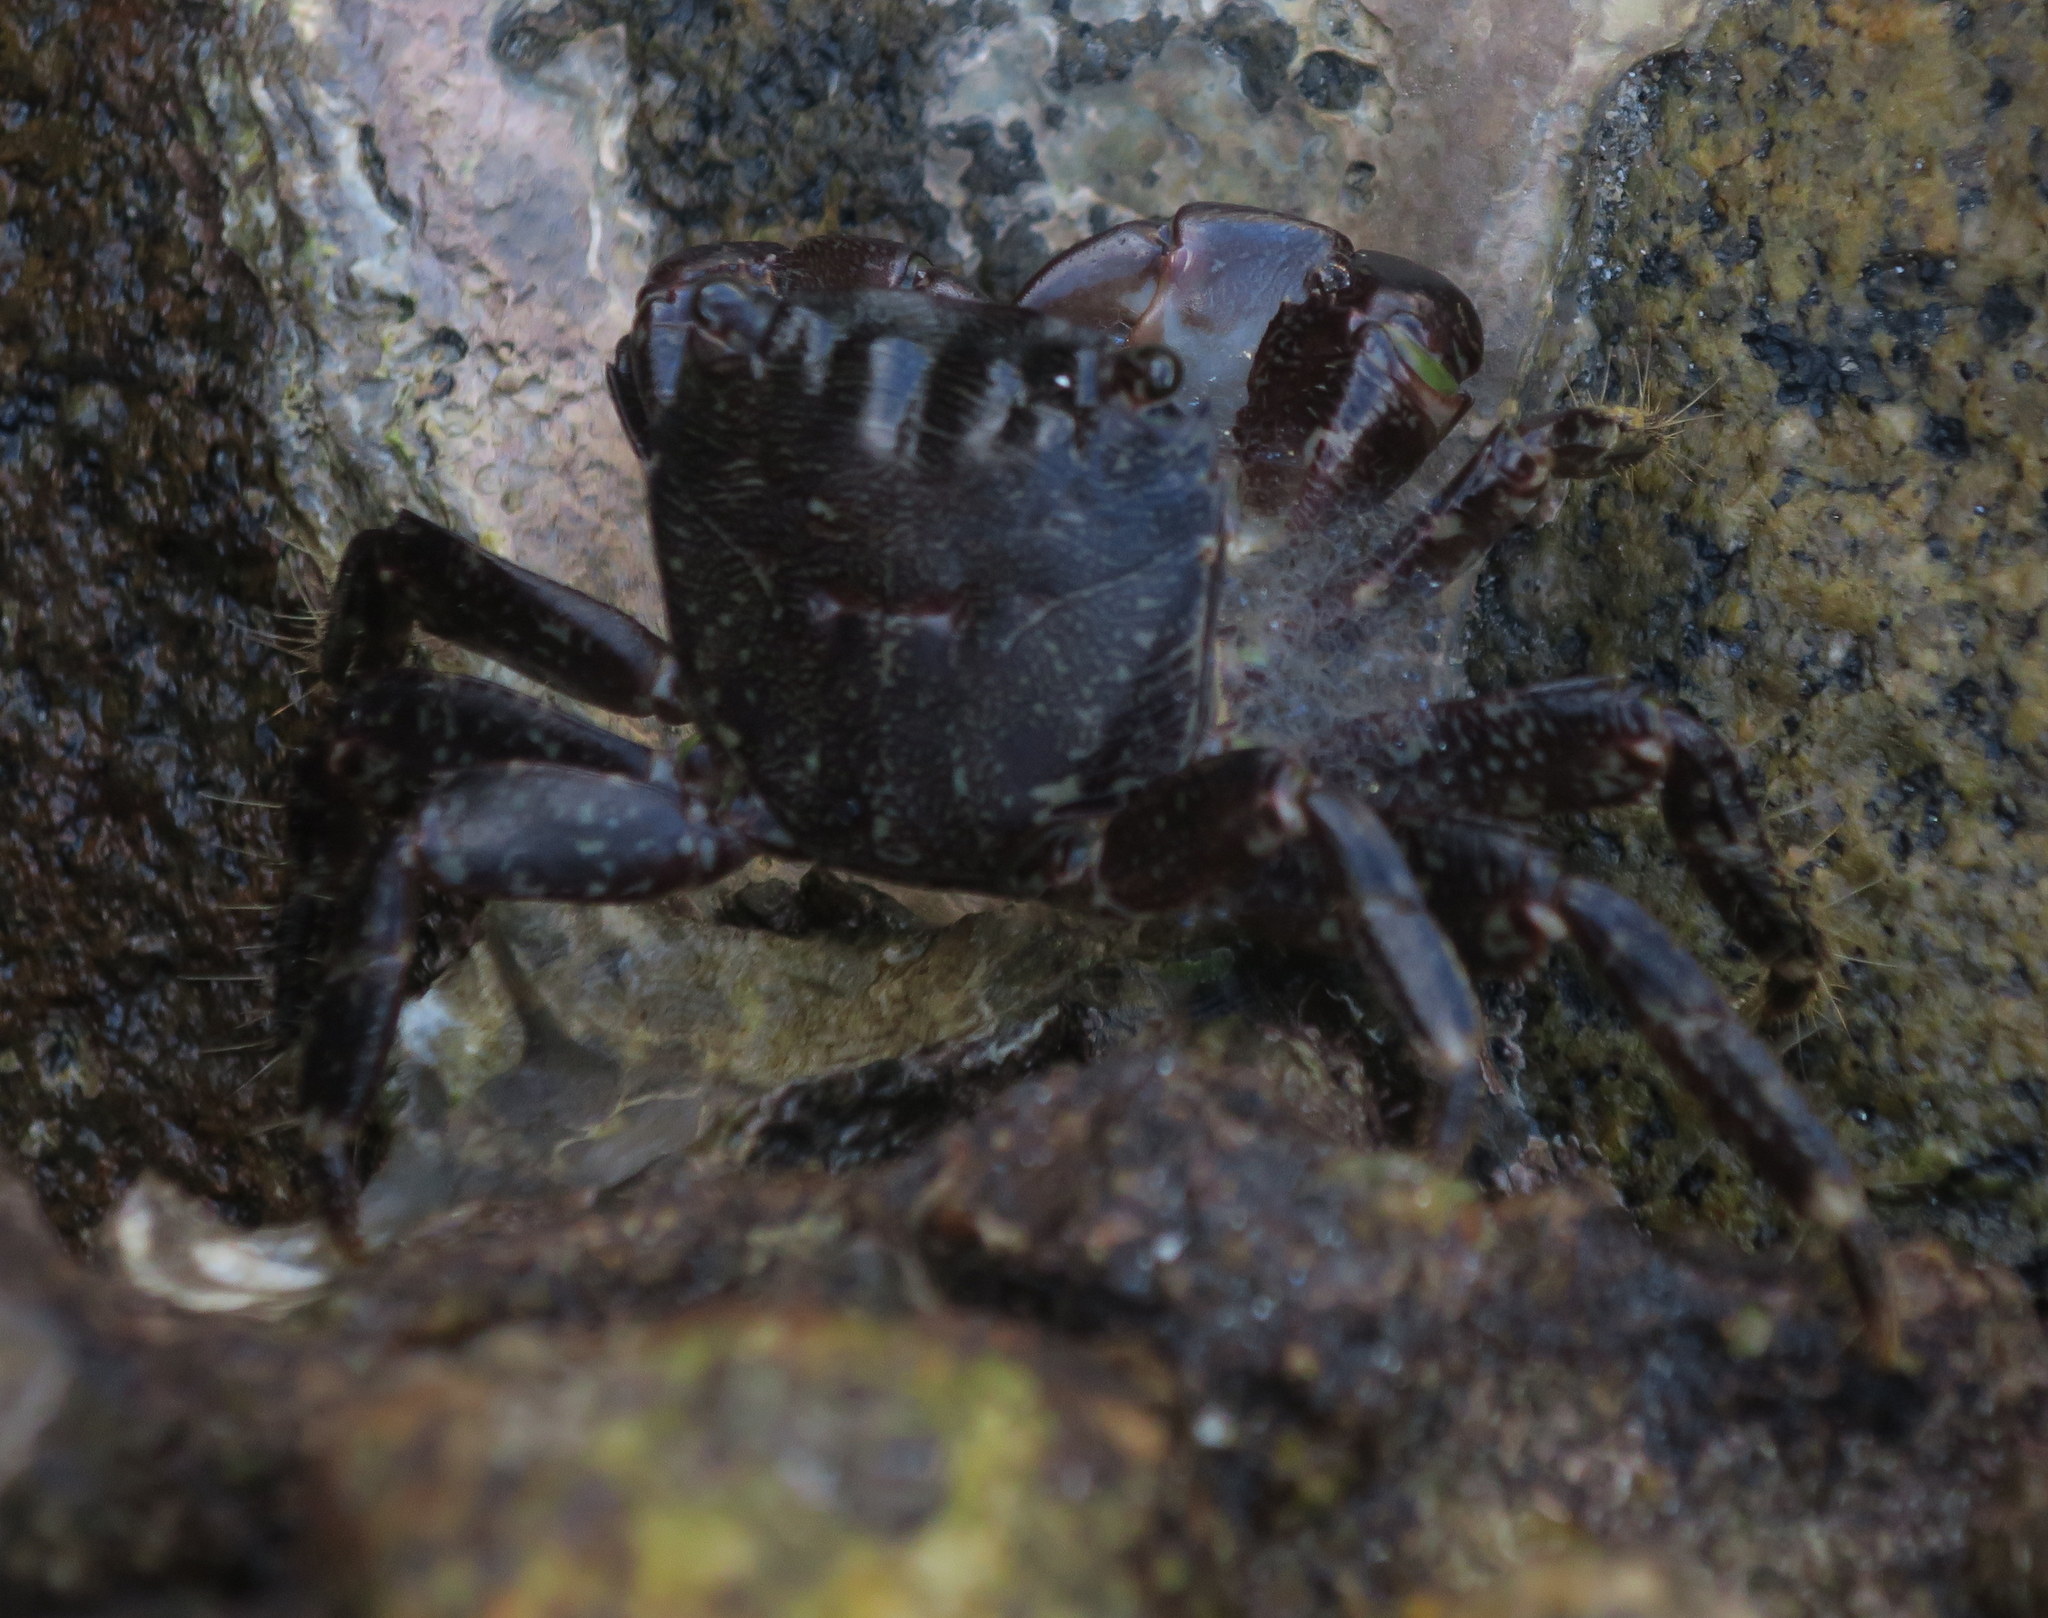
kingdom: Animalia
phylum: Arthropoda
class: Malacostraca
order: Decapoda
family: Grapsidae
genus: Pachygrapsus
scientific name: Pachygrapsus marmoratus
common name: Marbled rock crab
